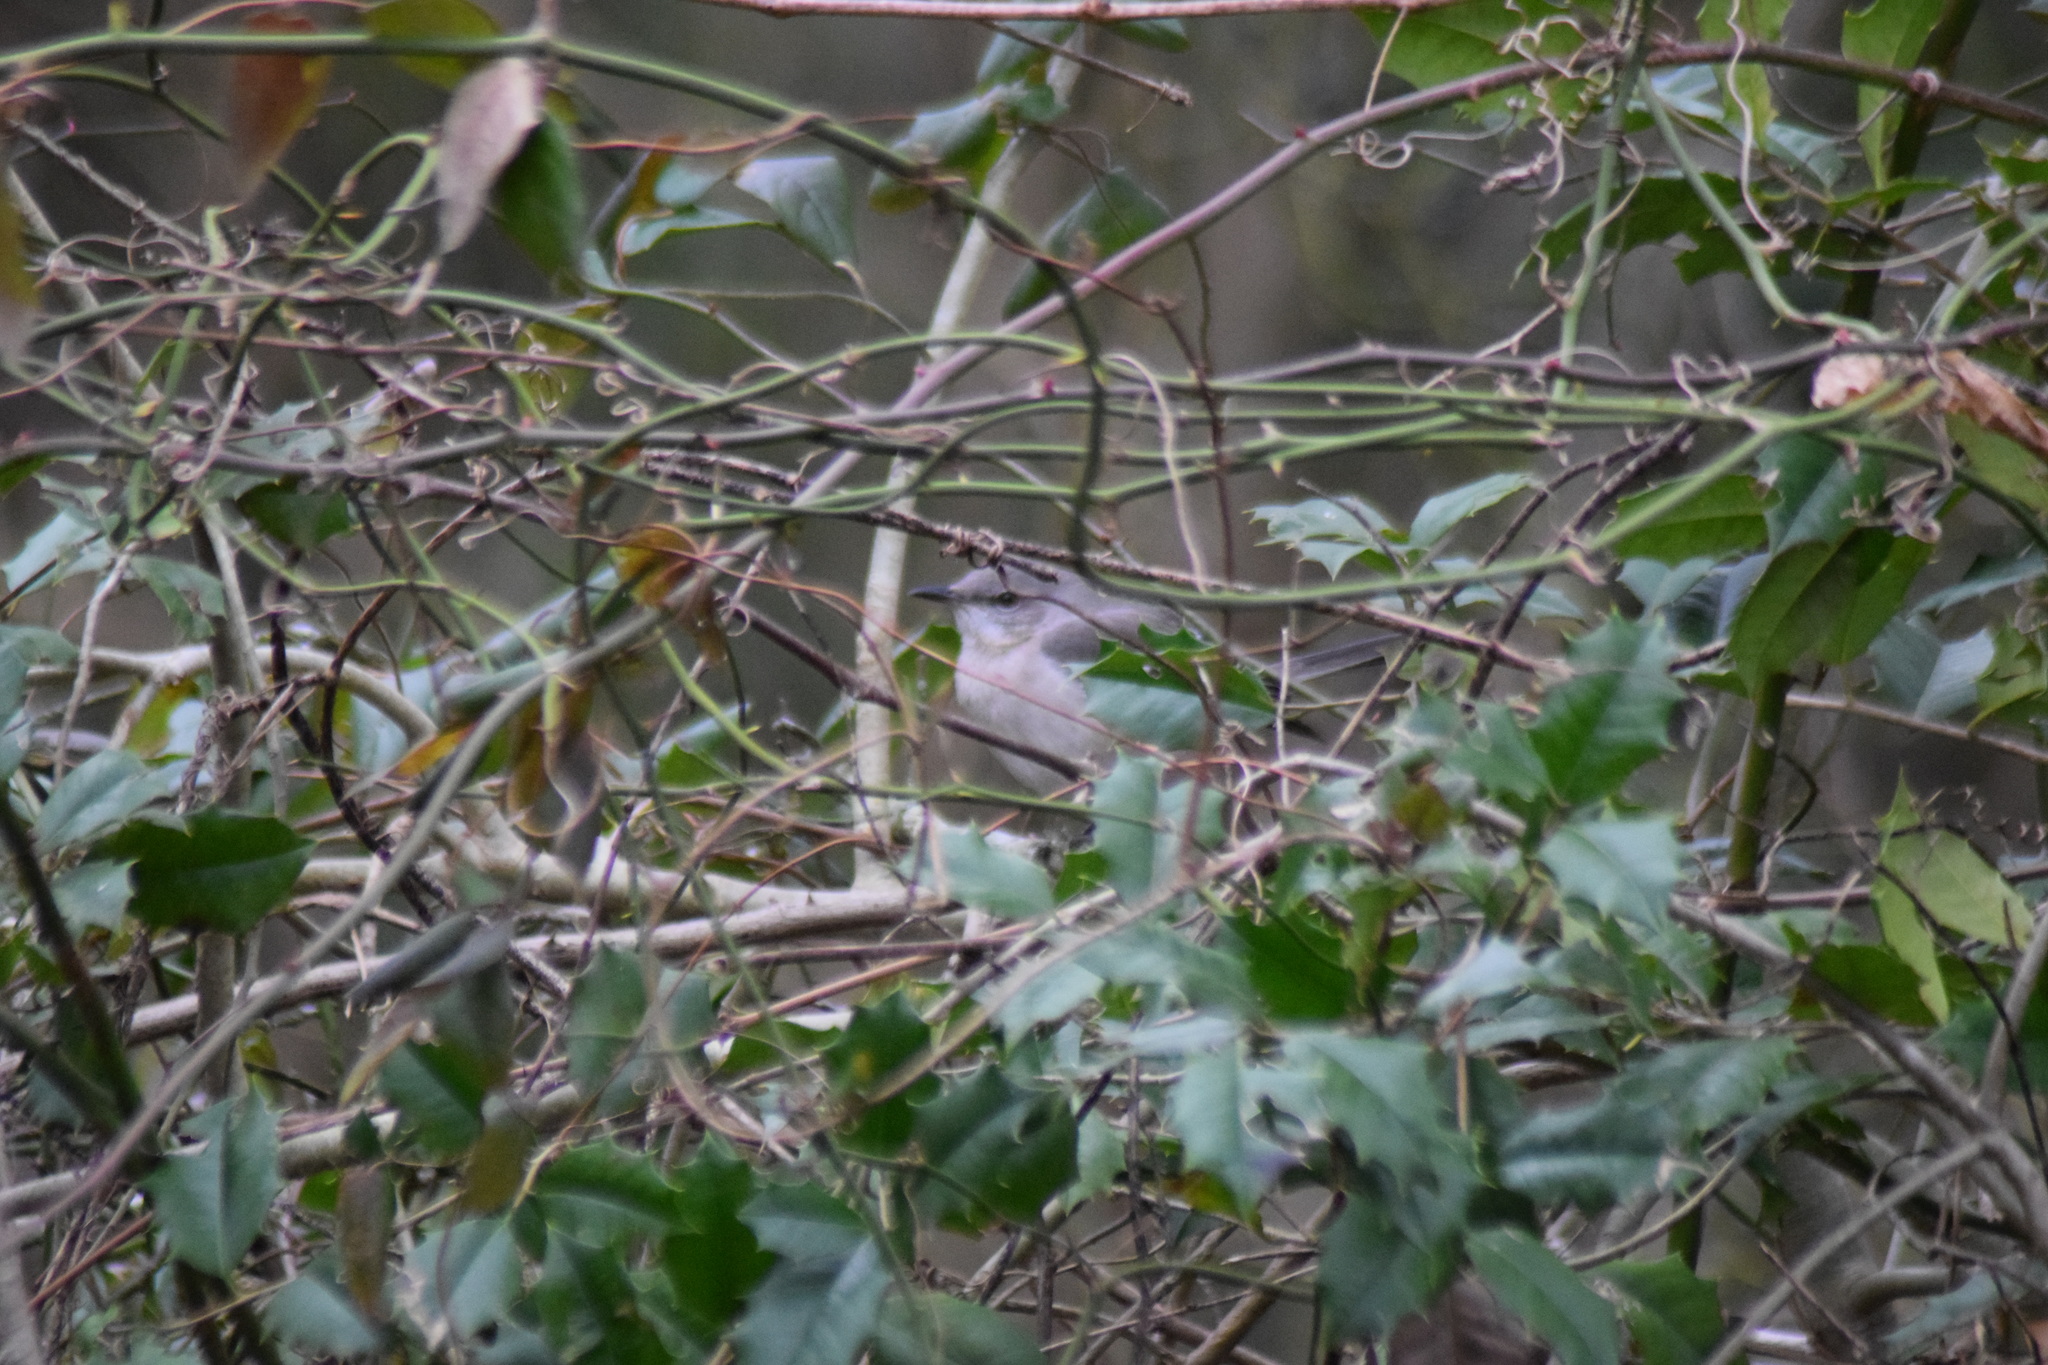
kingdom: Animalia
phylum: Chordata
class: Aves
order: Passeriformes
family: Mimidae
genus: Mimus
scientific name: Mimus polyglottos
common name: Northern mockingbird
